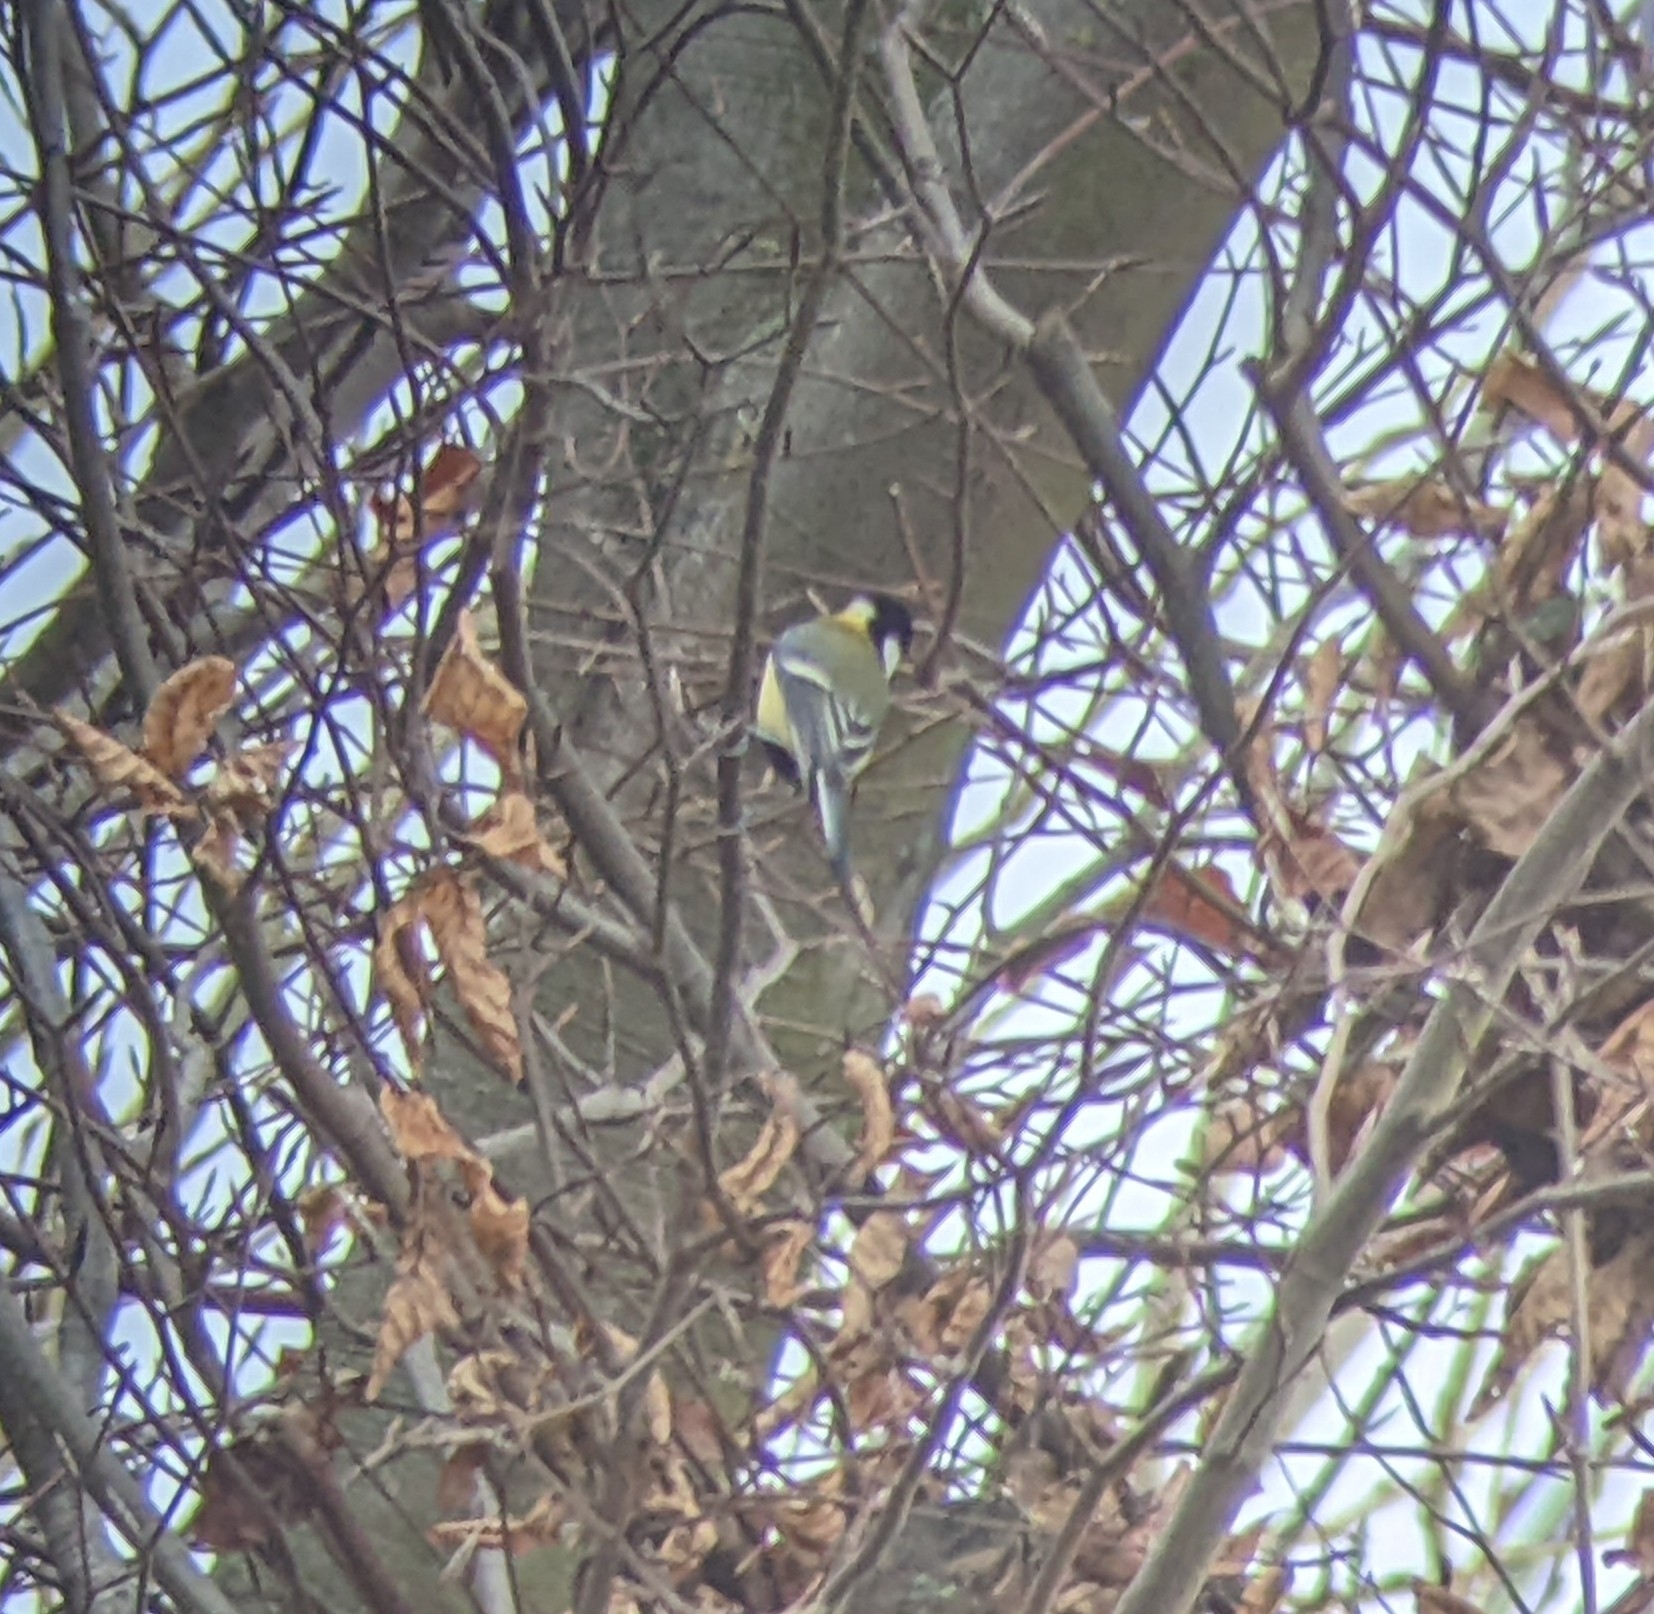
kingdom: Animalia
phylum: Chordata
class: Aves
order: Passeriformes
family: Paridae
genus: Parus
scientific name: Parus major
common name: Great tit
